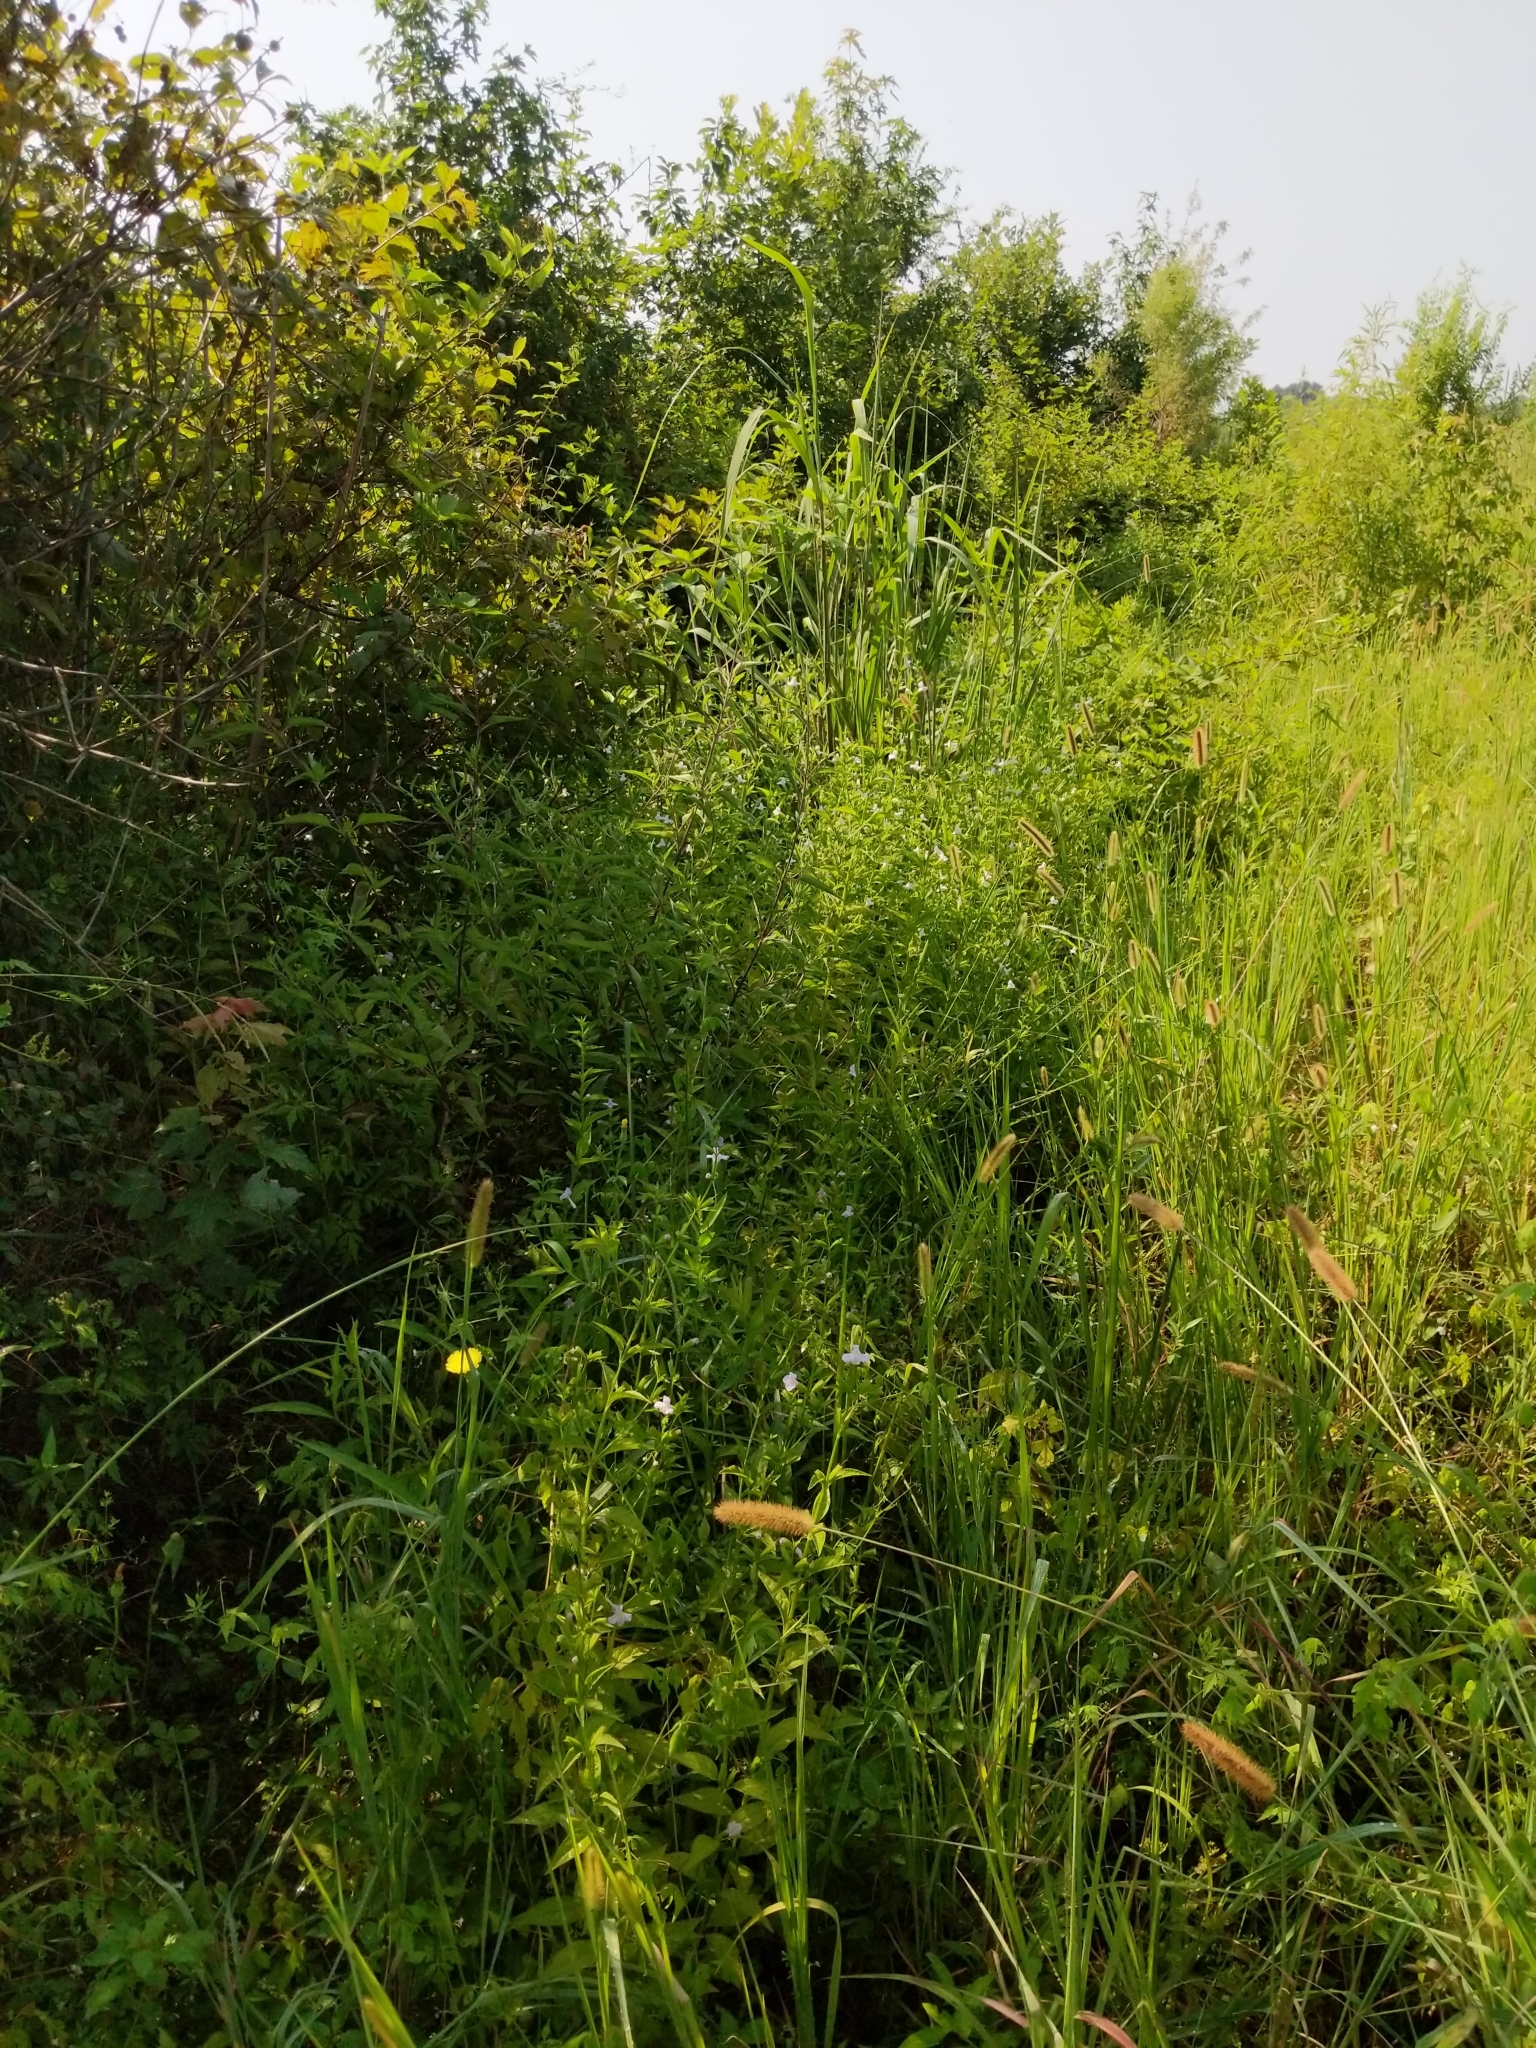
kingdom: Plantae
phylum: Tracheophyta
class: Magnoliopsida
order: Lamiales
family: Phrymaceae
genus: Mimulus
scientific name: Mimulus alatus
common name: Sharp-wing monkey-flower
